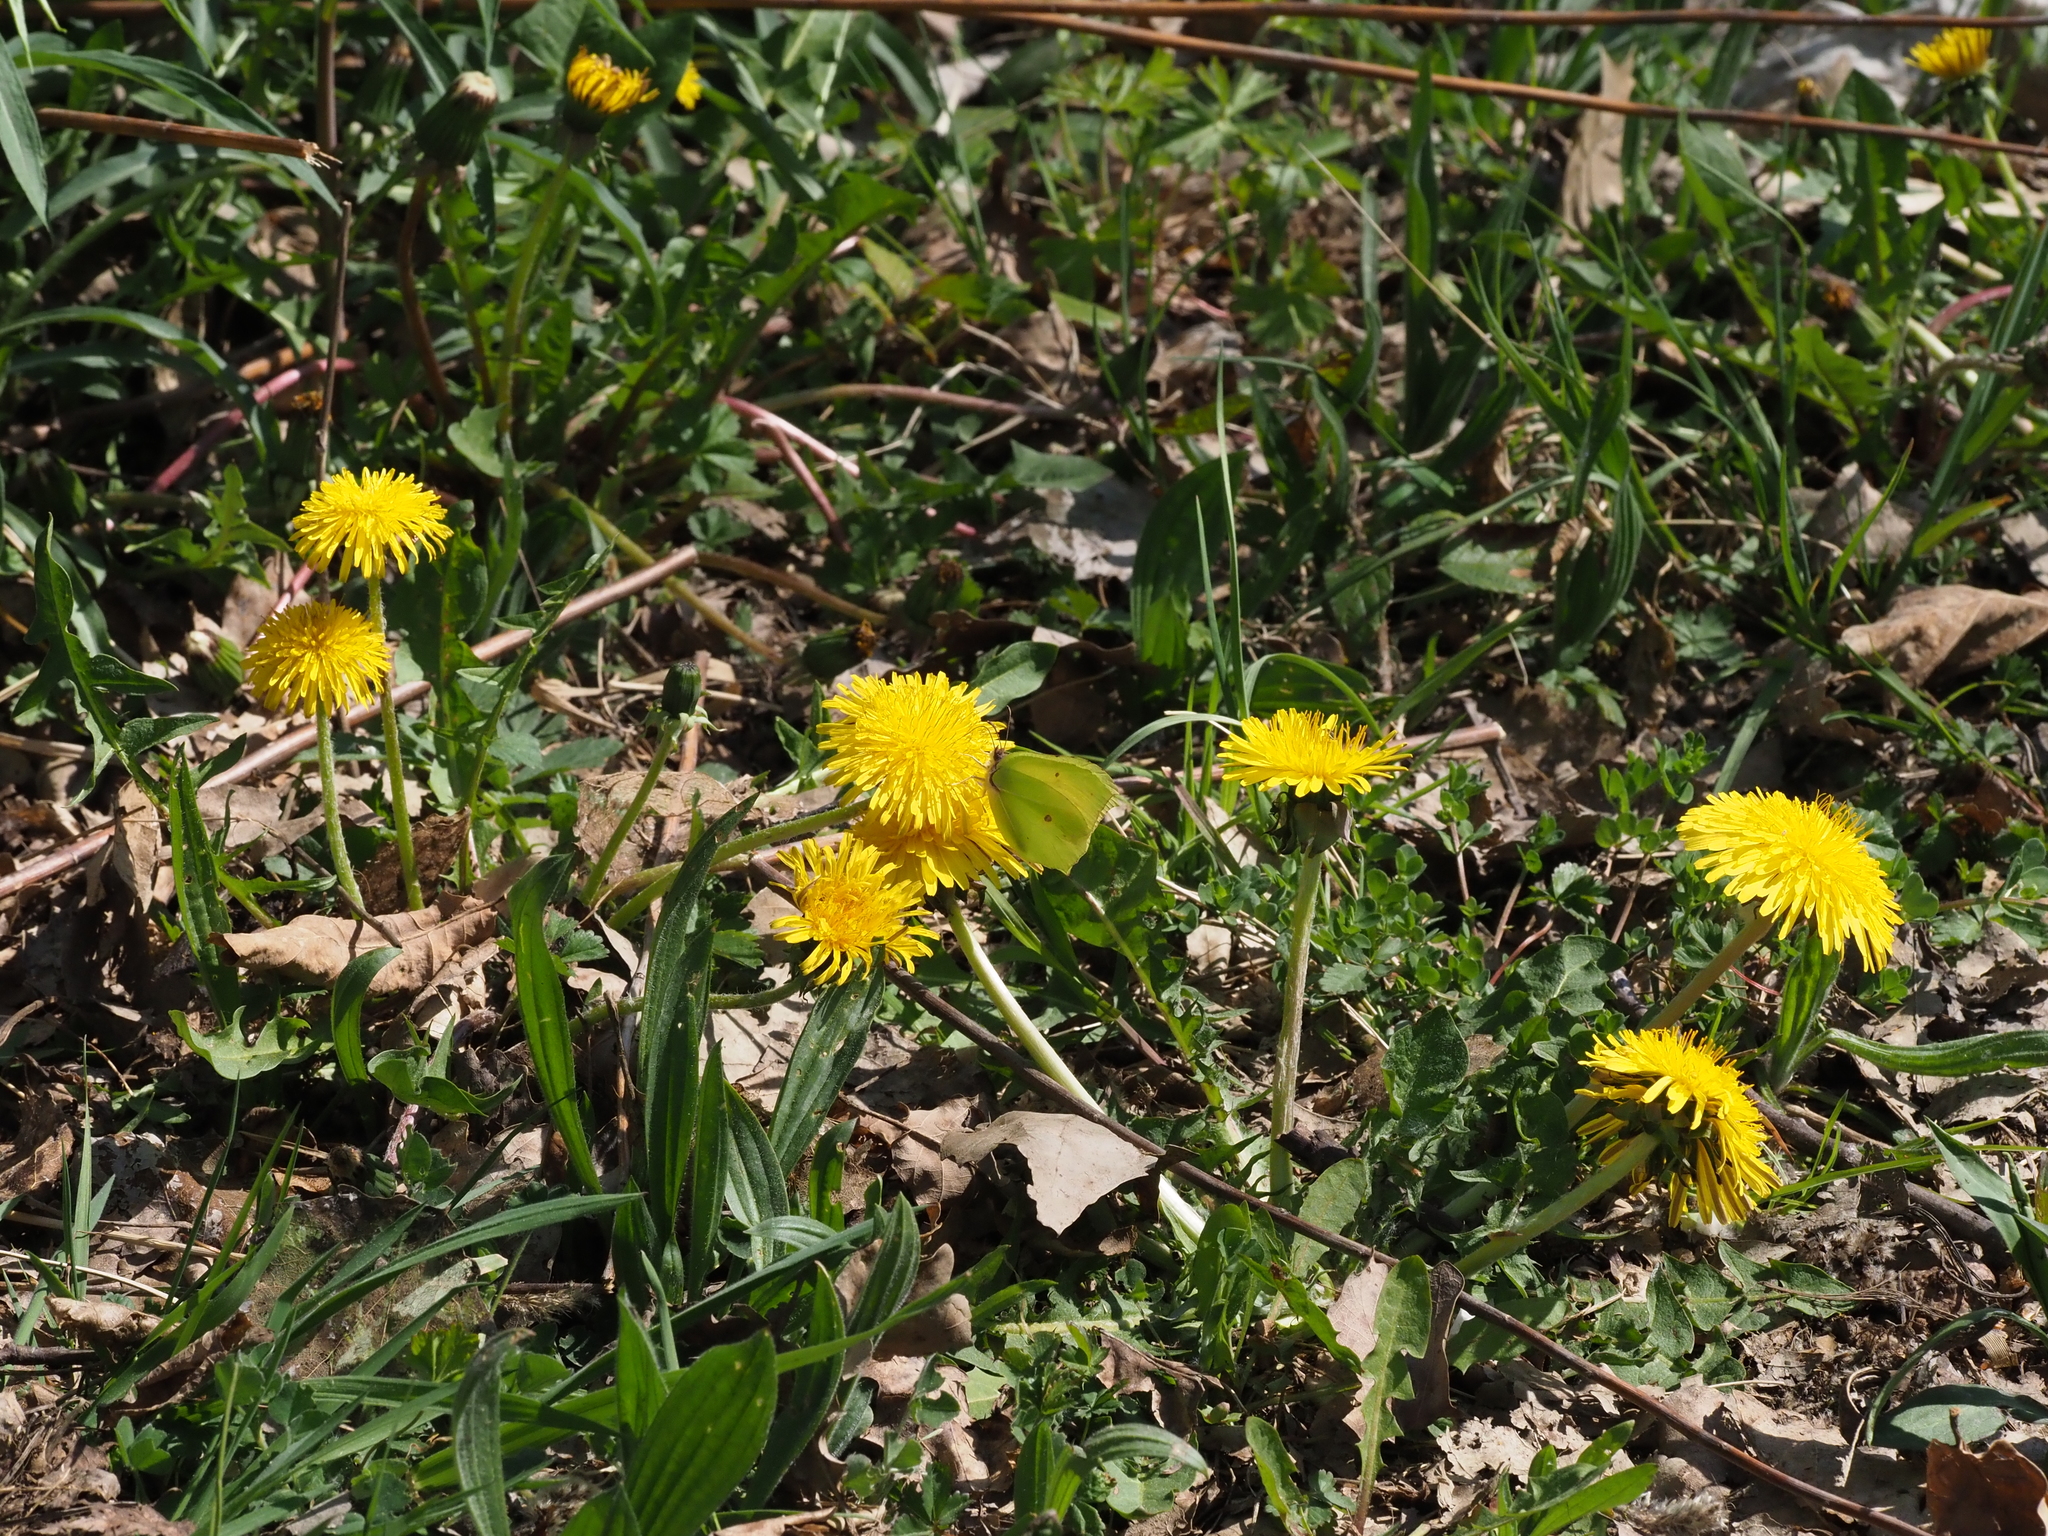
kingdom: Animalia
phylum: Arthropoda
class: Insecta
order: Lepidoptera
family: Pieridae
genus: Gonepteryx
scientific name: Gonepteryx rhamni
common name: Brimstone
